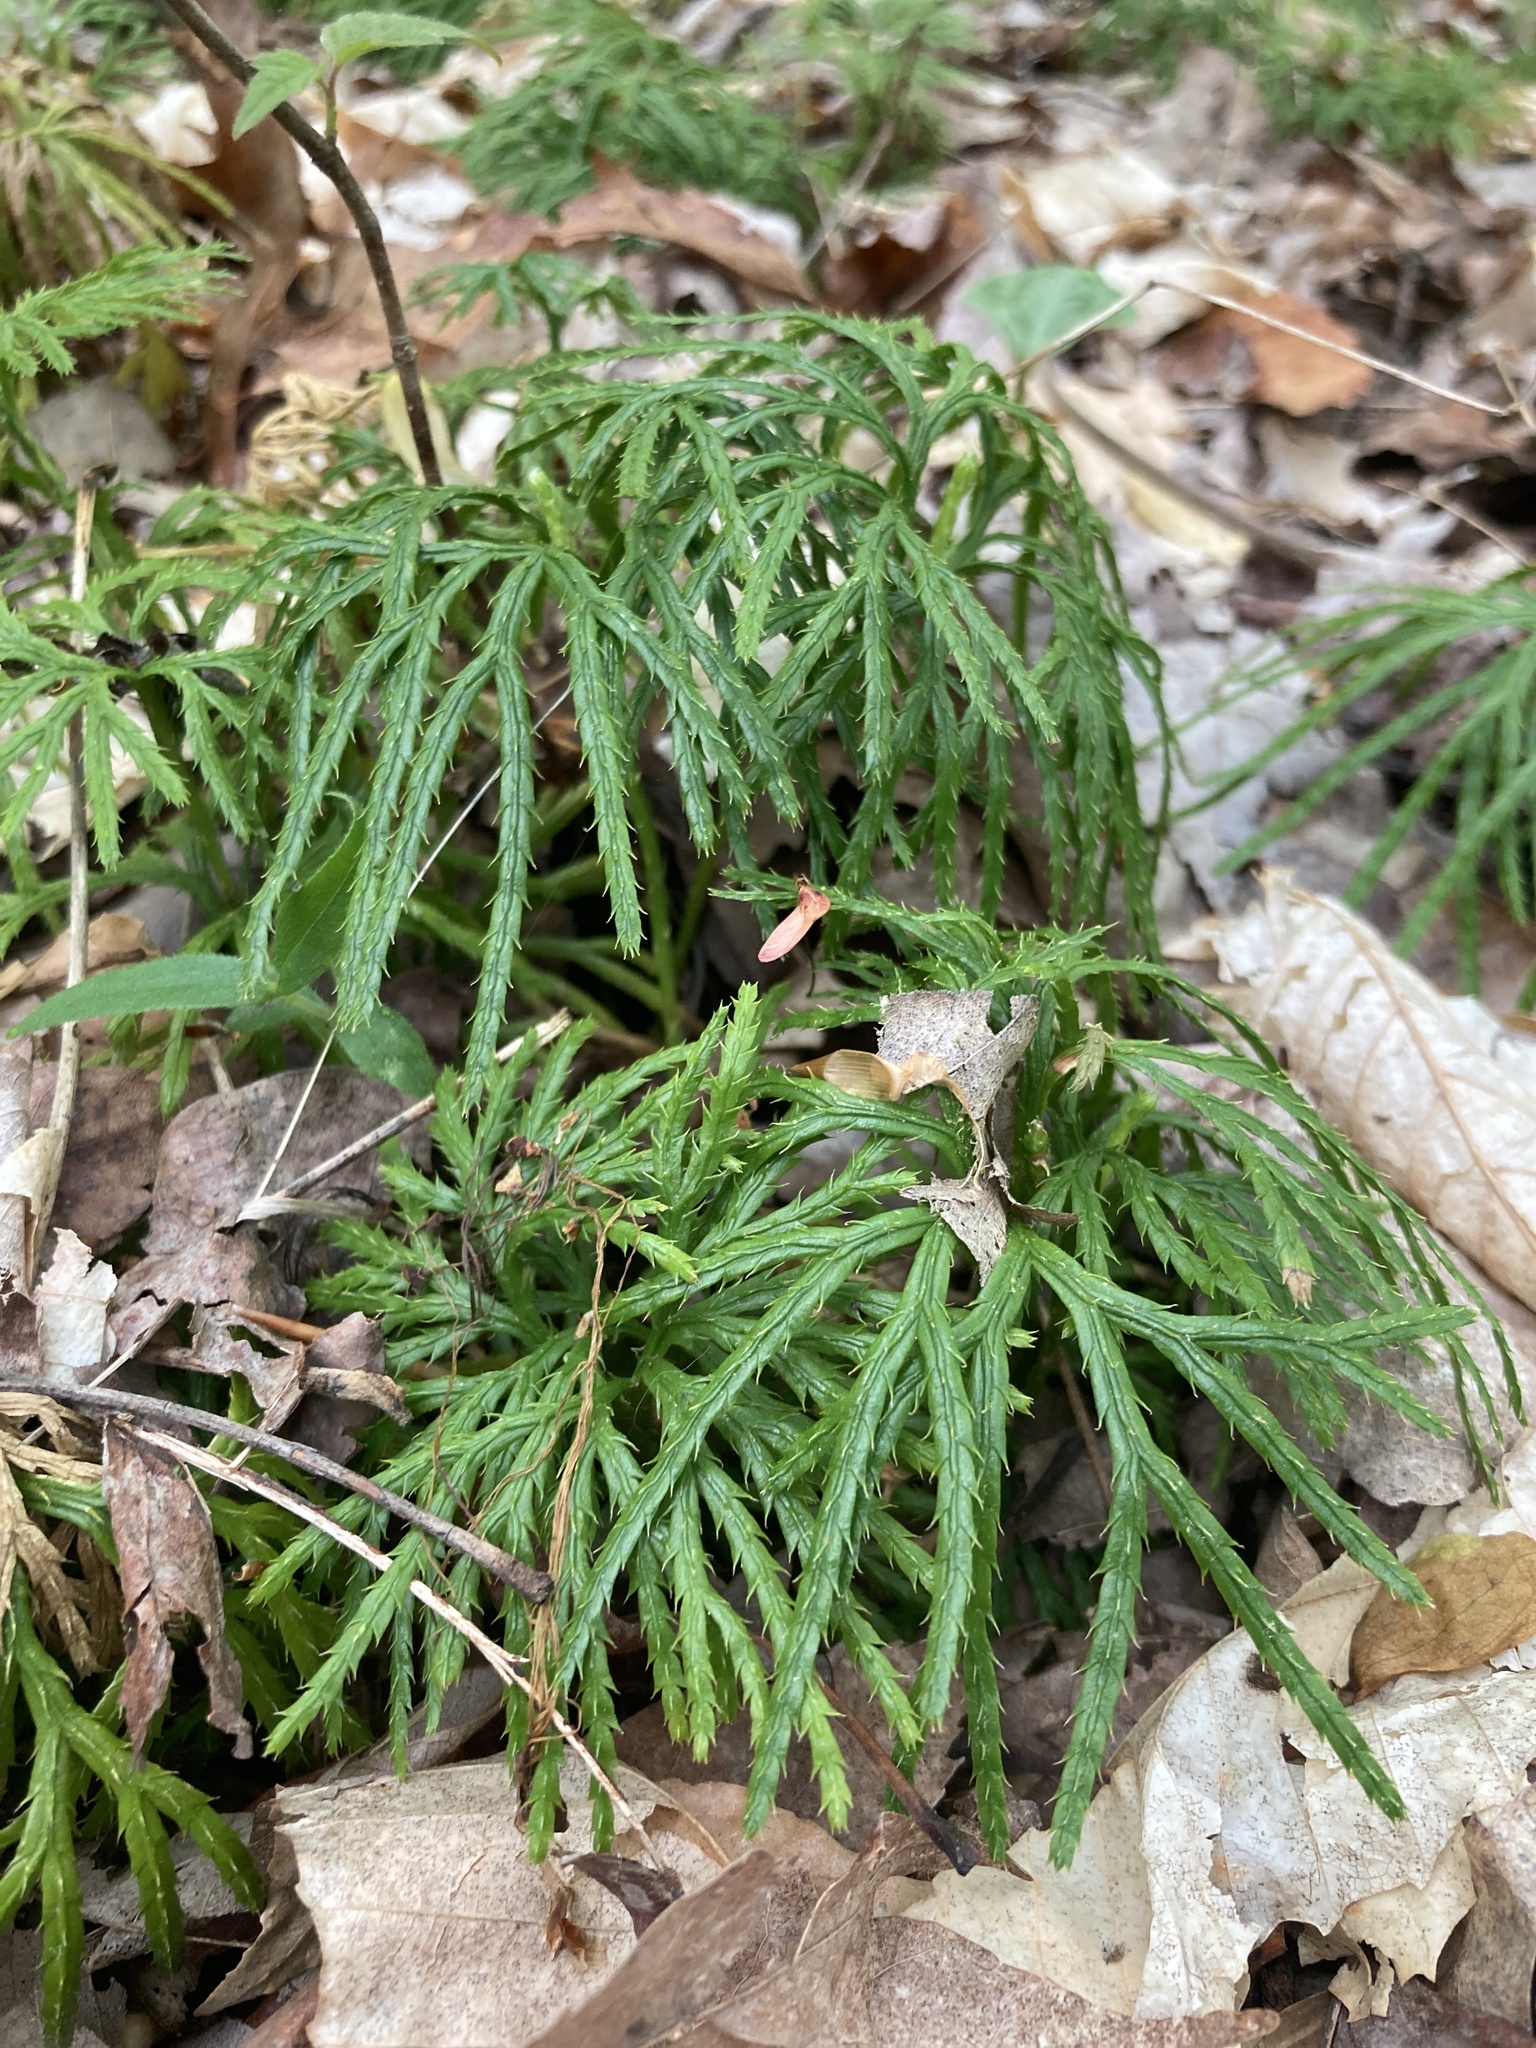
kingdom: Plantae
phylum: Tracheophyta
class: Lycopodiopsida
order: Lycopodiales
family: Lycopodiaceae
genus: Diphasiastrum
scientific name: Diphasiastrum digitatum
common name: Southern running-pine
